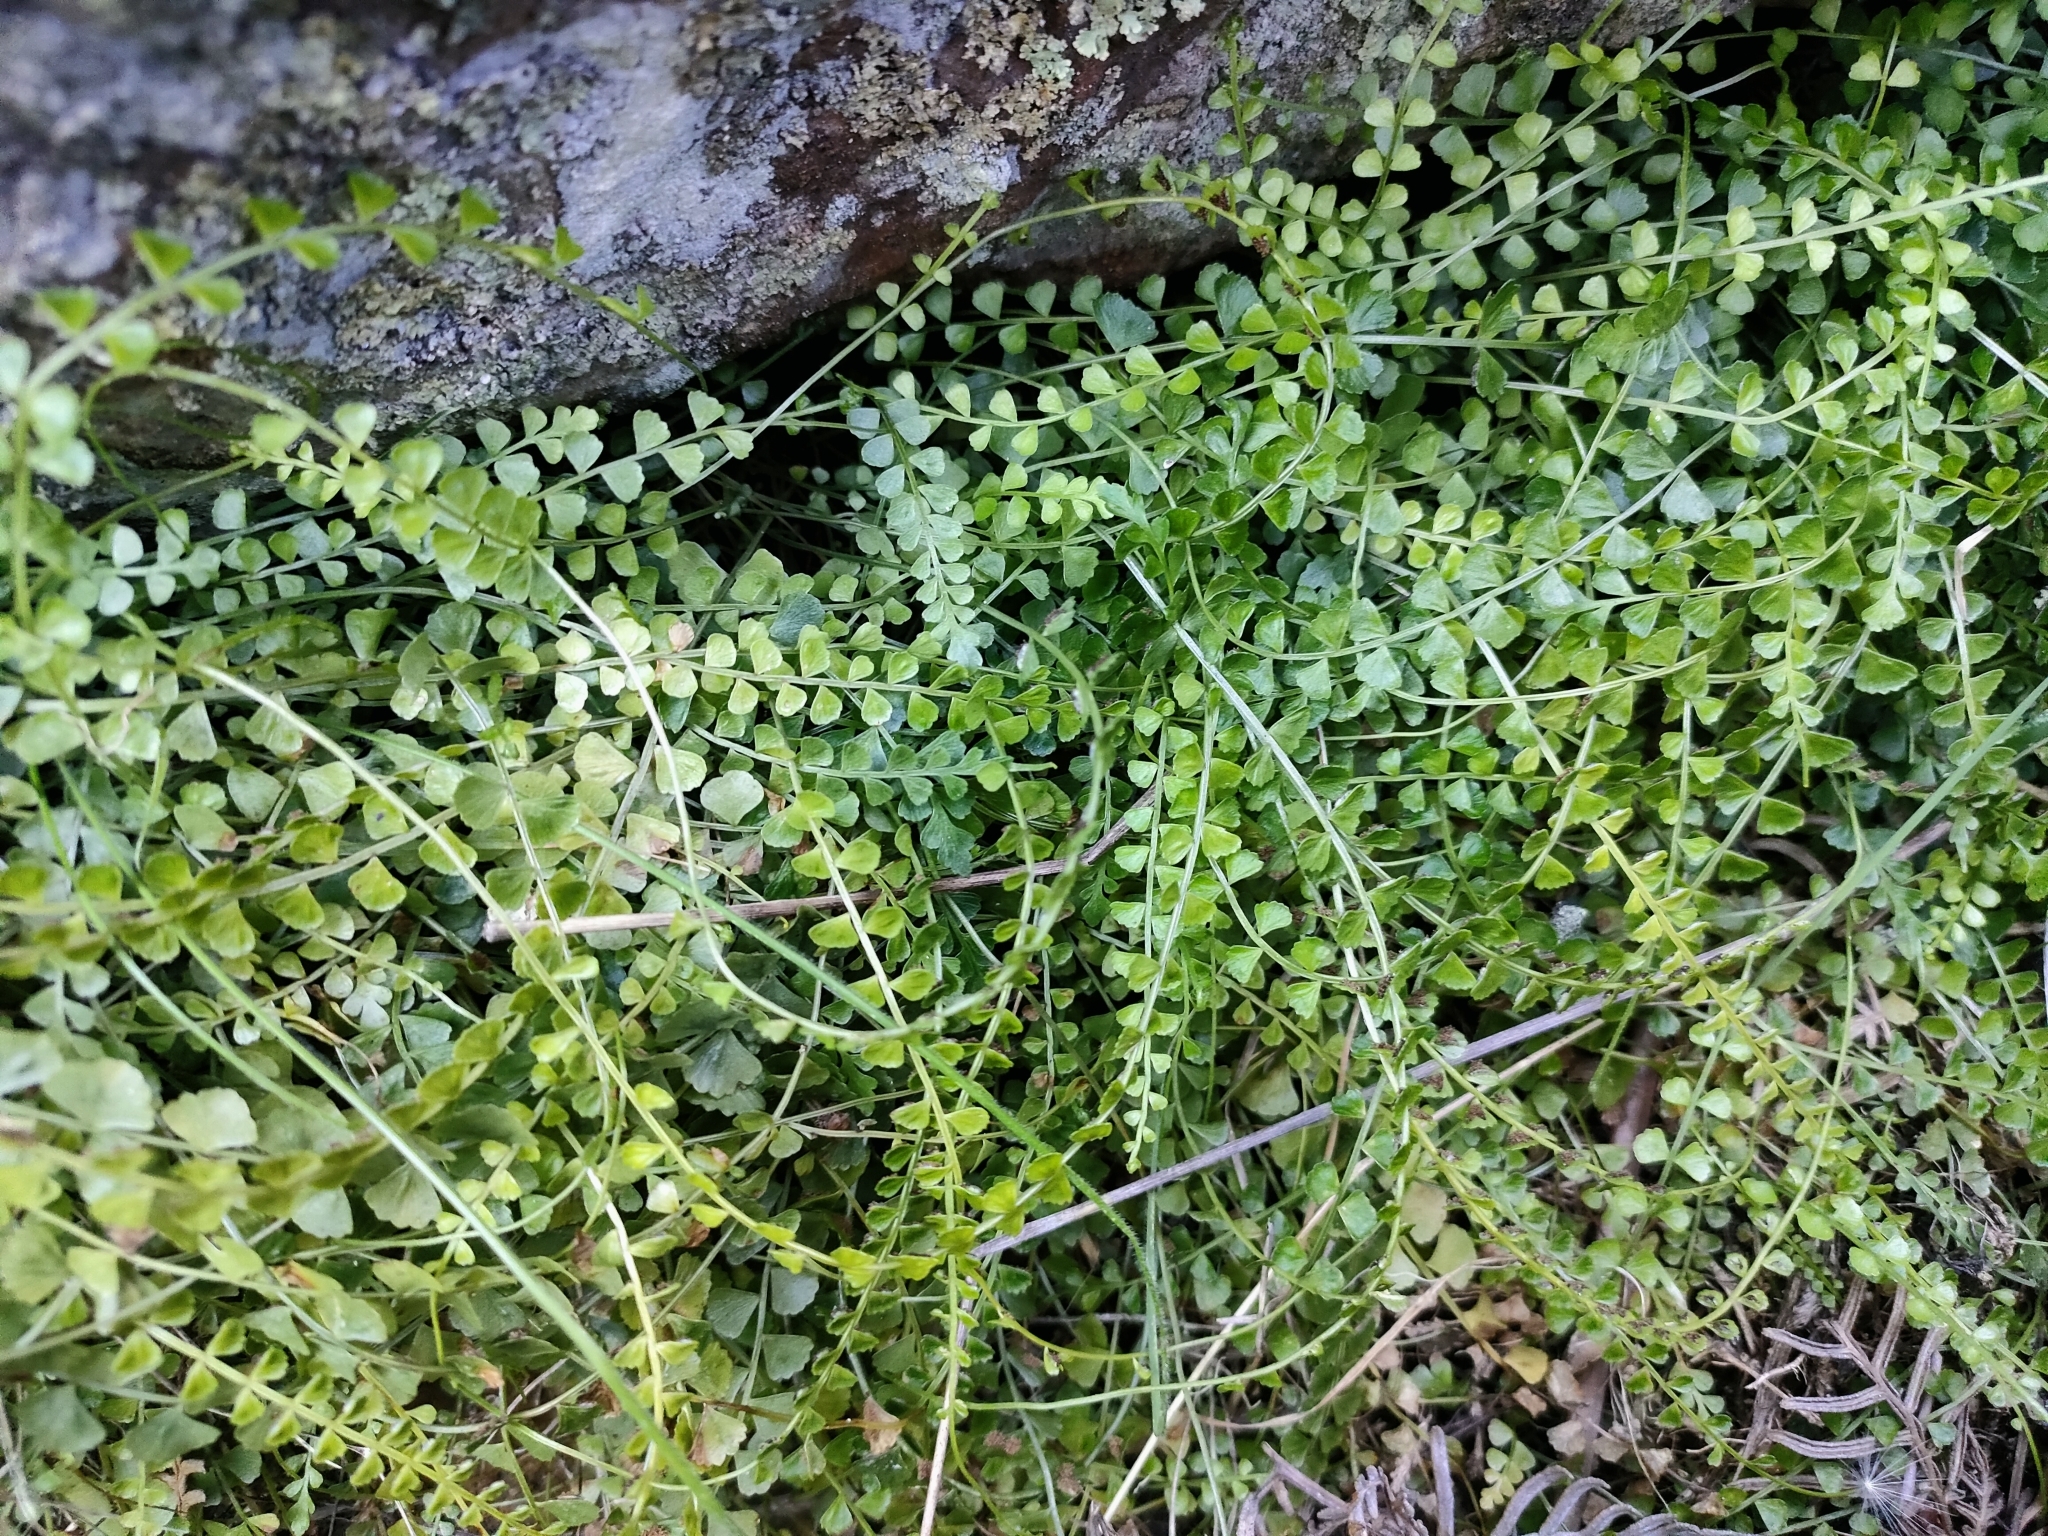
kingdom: Plantae
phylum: Tracheophyta
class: Polypodiopsida
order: Polypodiales
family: Aspleniaceae
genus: Asplenium
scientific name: Asplenium flabellifolium
